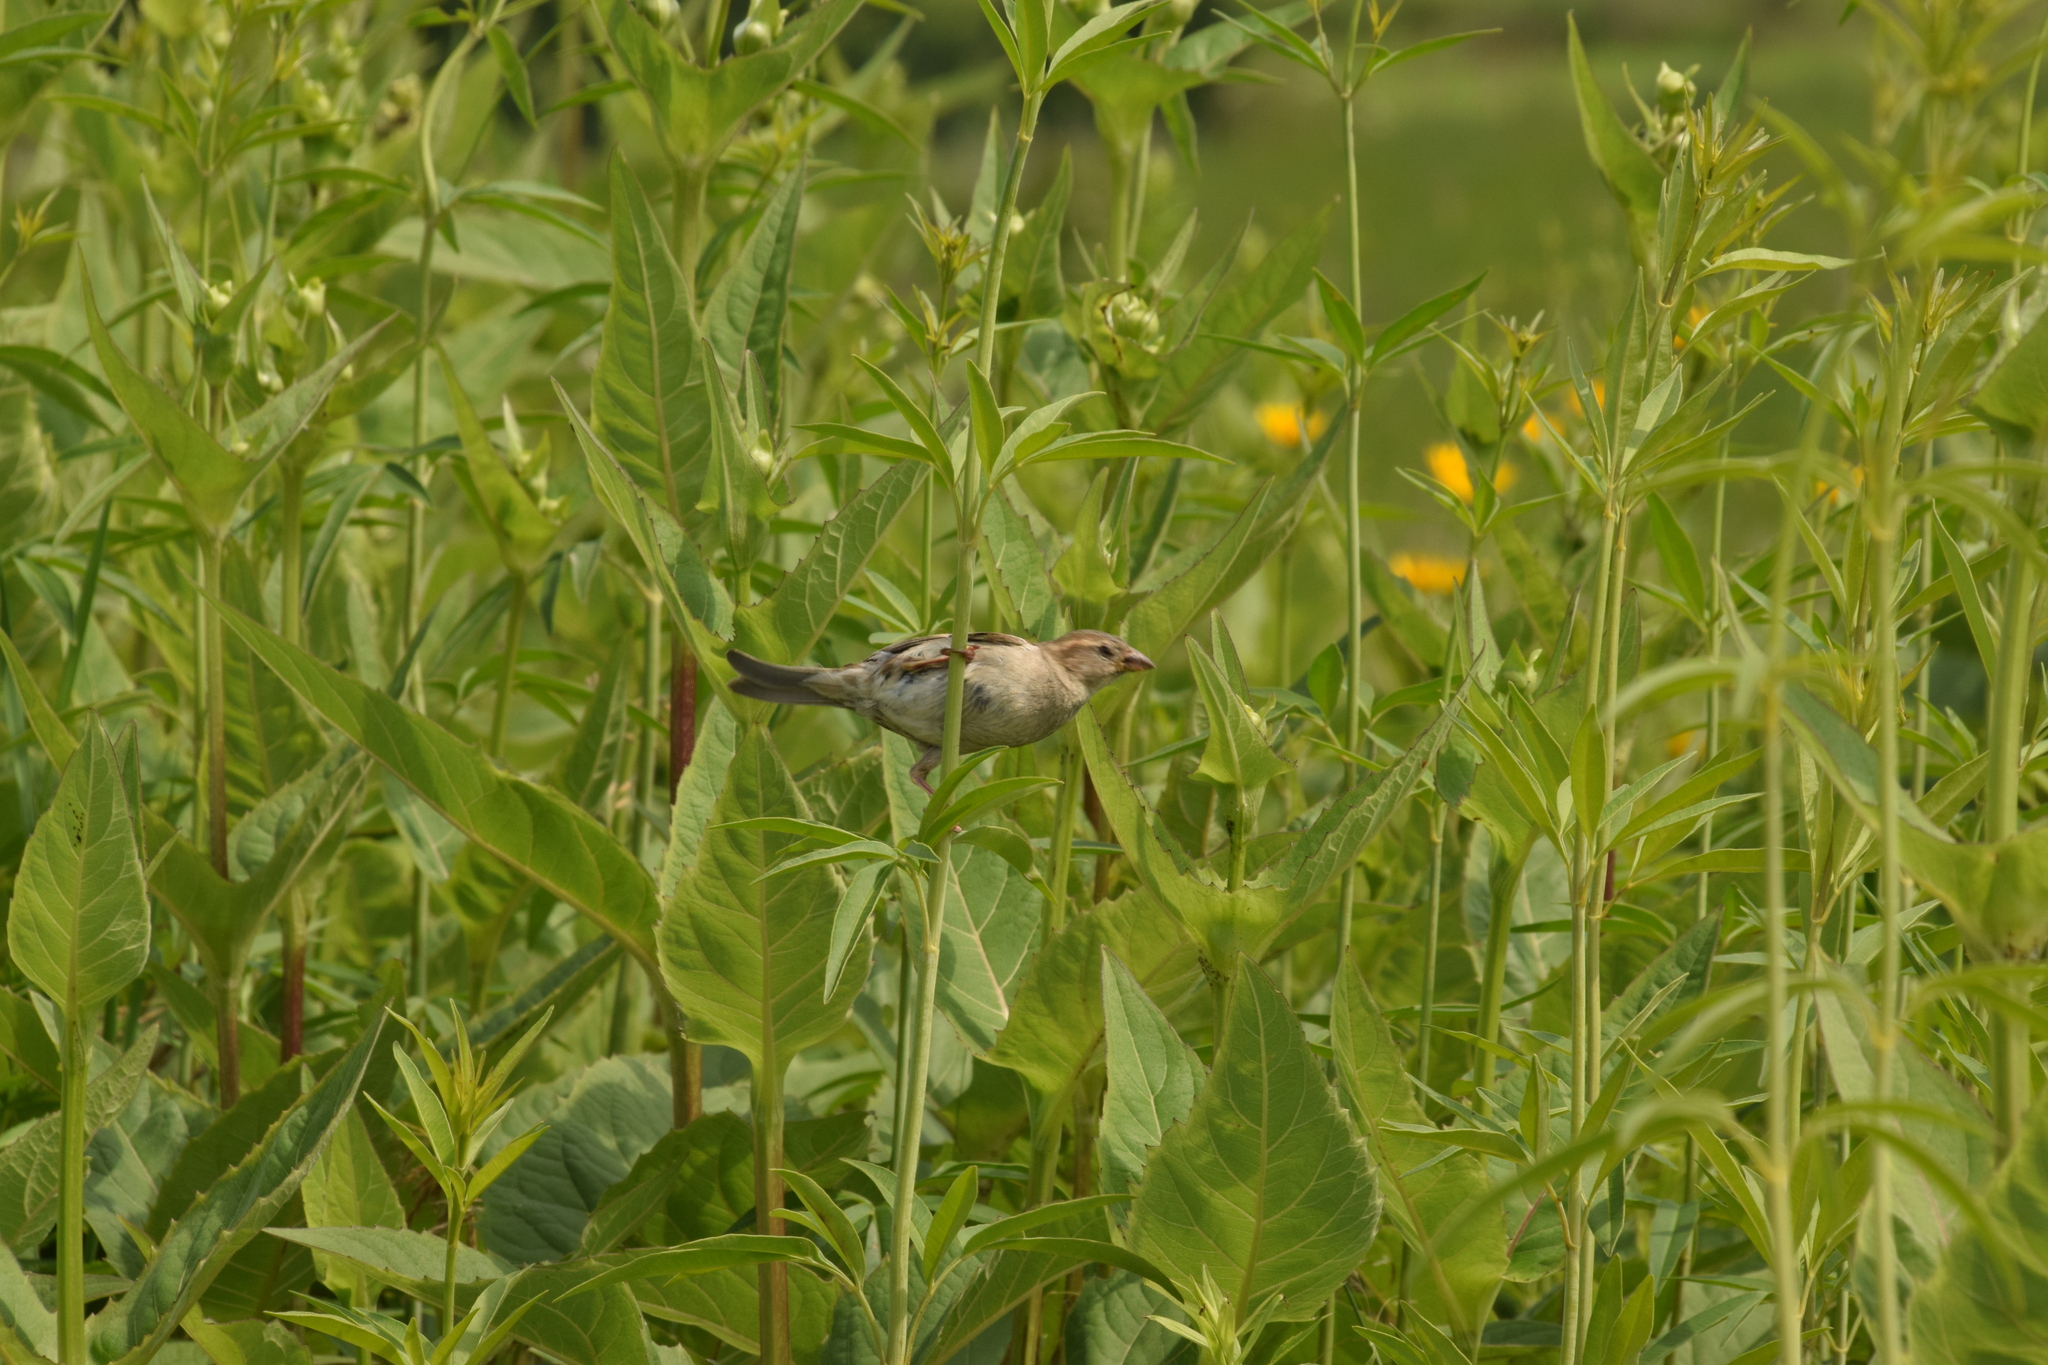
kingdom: Animalia
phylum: Chordata
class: Aves
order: Passeriformes
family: Passeridae
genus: Passer
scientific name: Passer domesticus
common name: House sparrow
